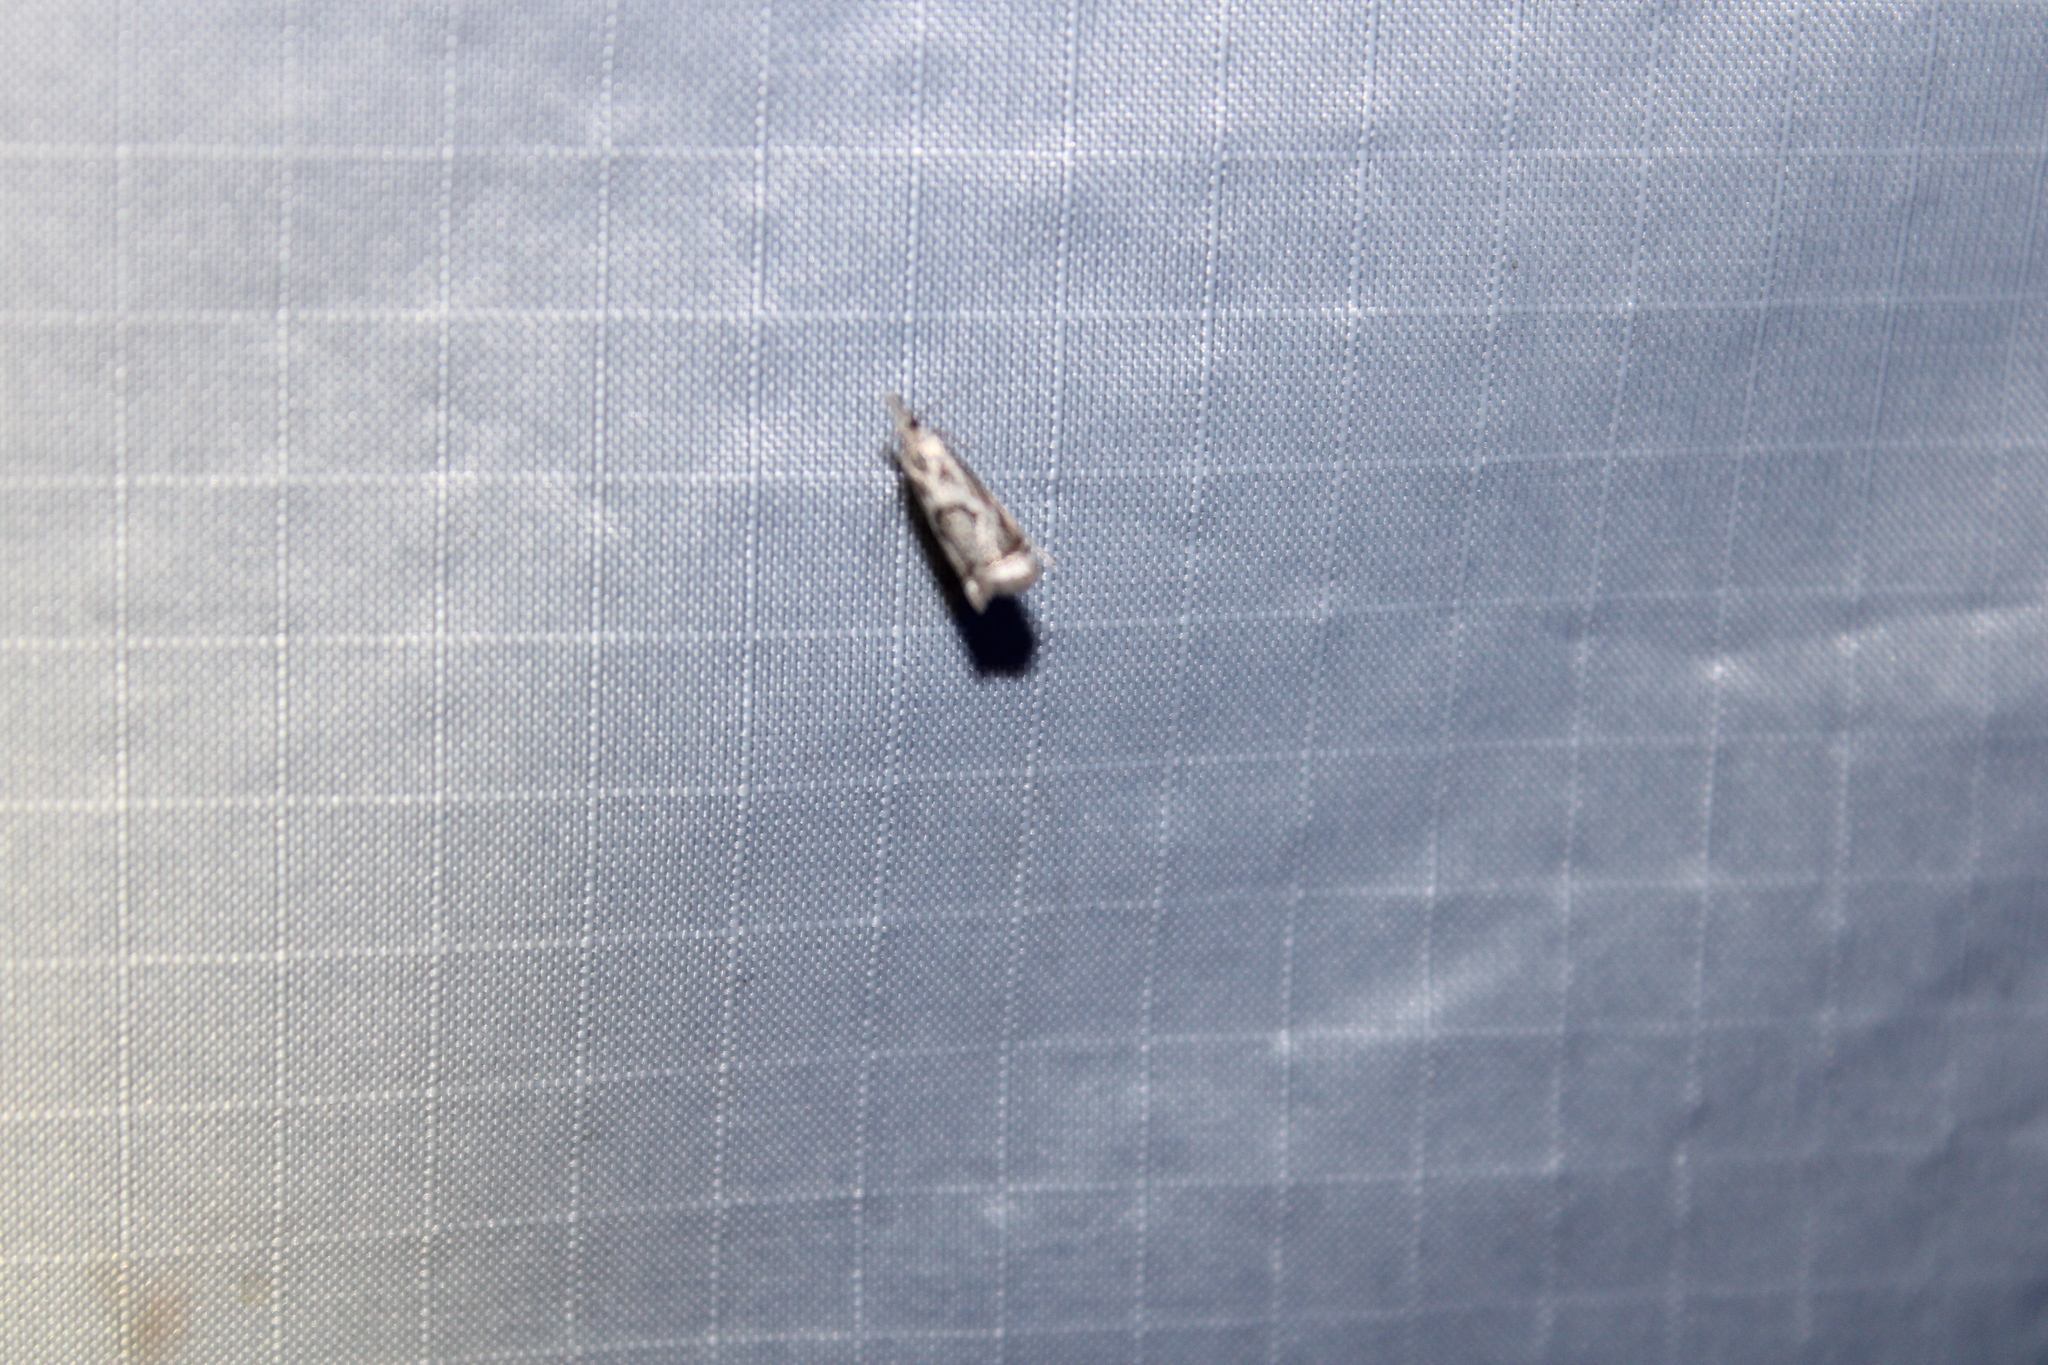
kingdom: Animalia
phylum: Arthropoda
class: Insecta
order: Lepidoptera
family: Crambidae
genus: Microcrambus
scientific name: Microcrambus elegans
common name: Elegant grass-veneer
